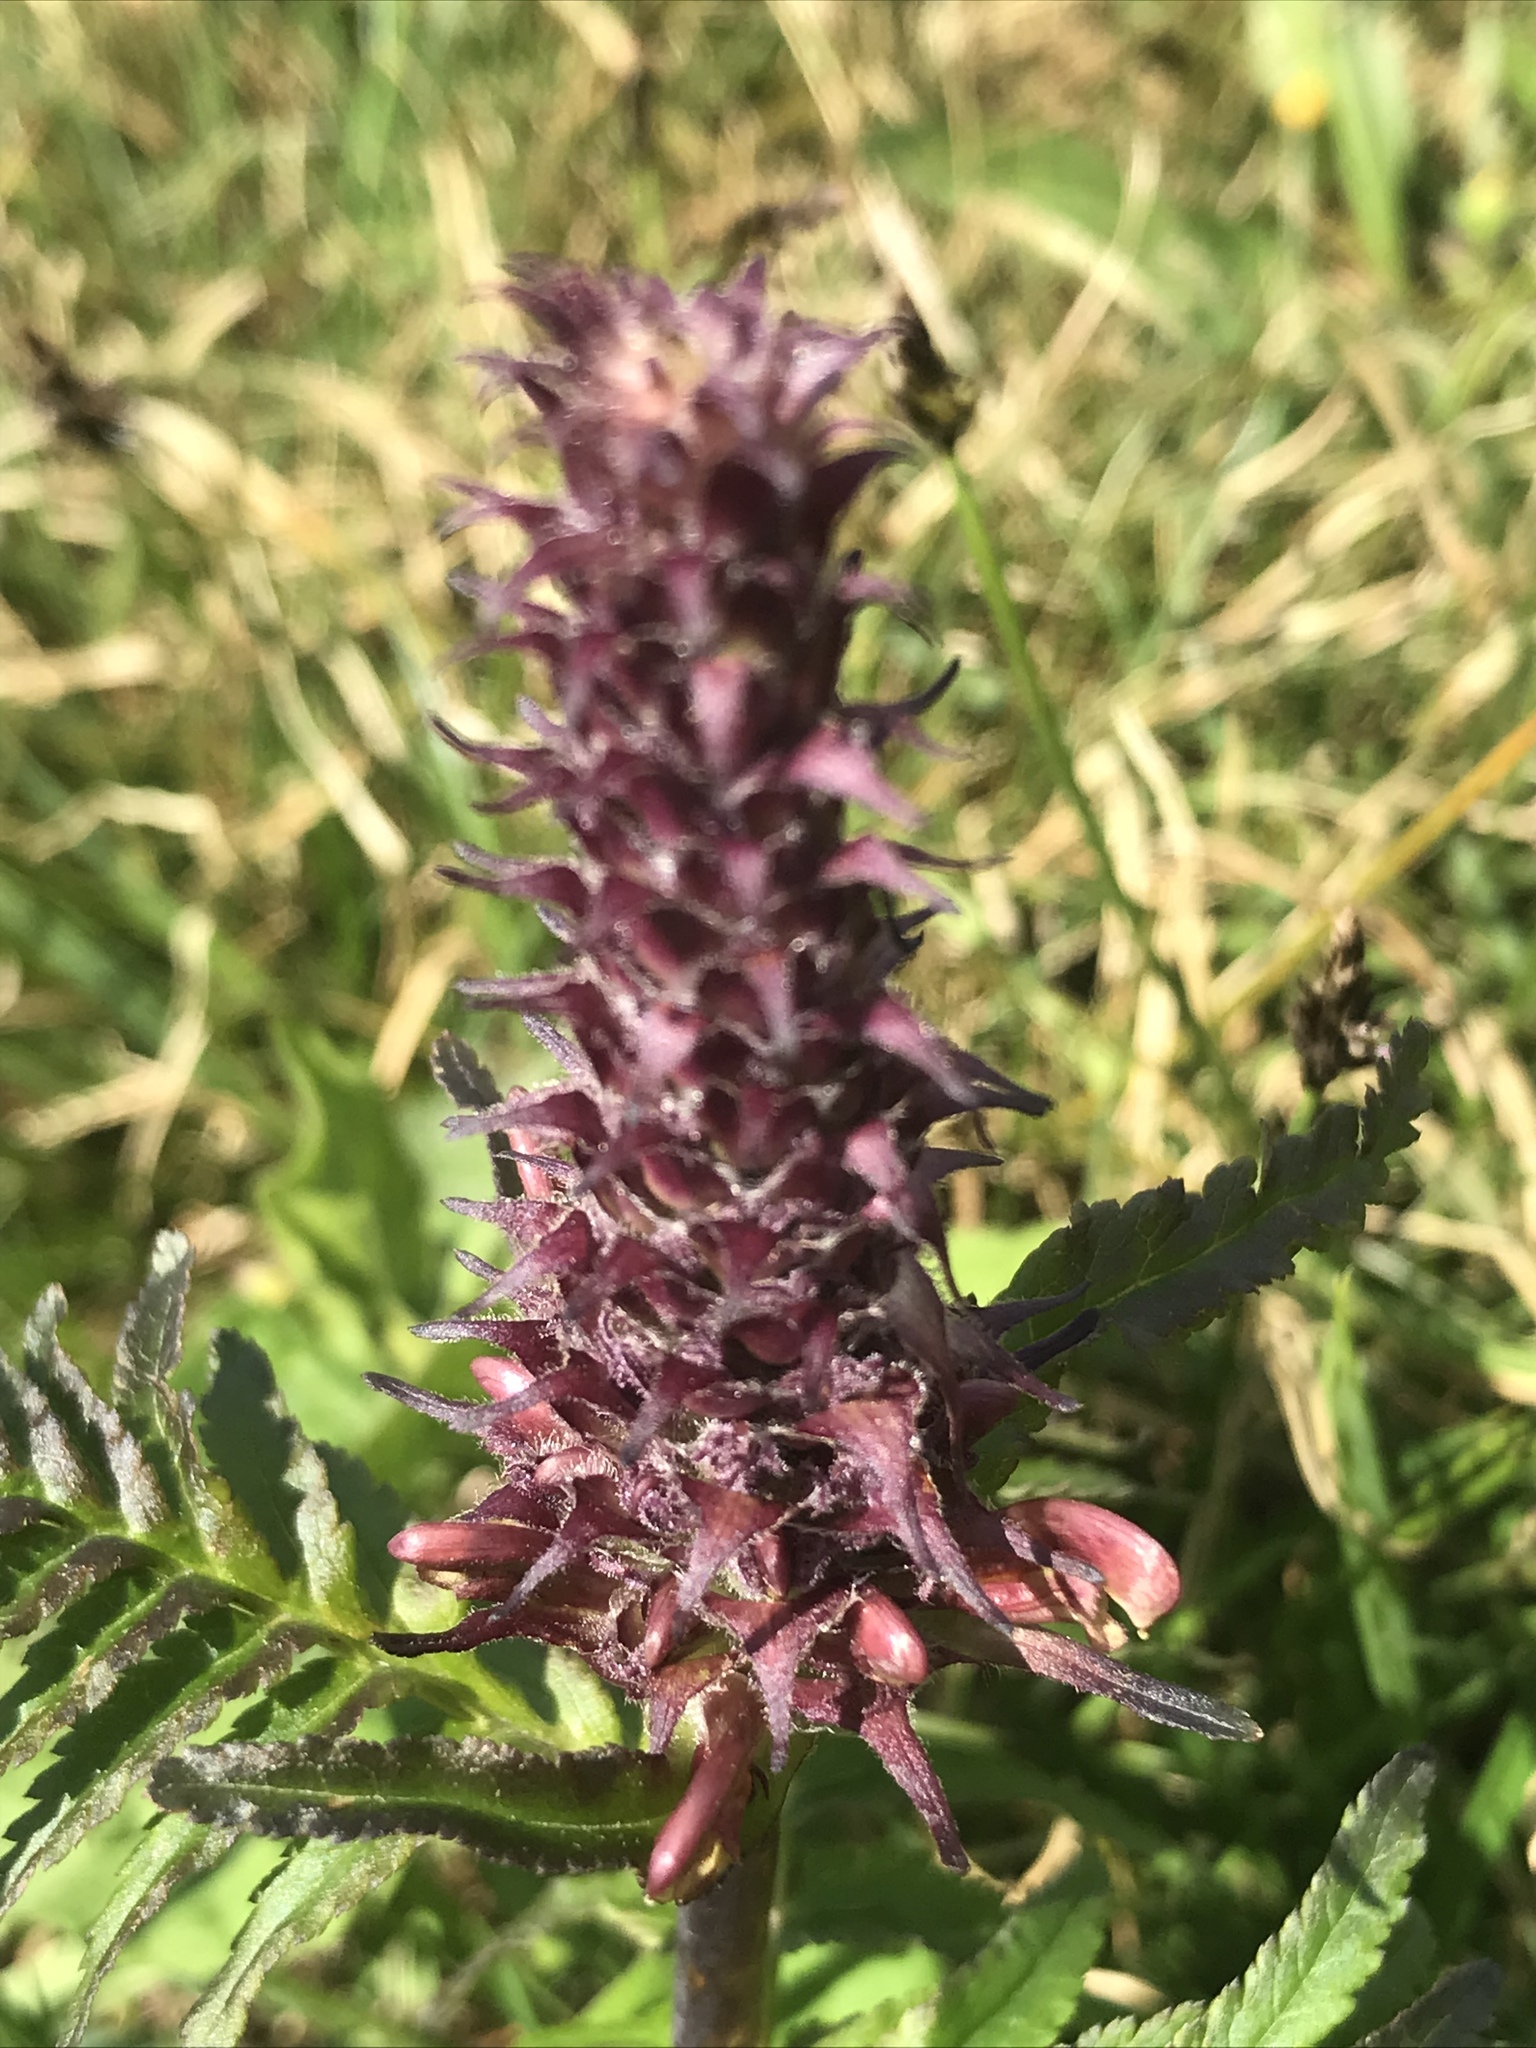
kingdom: Plantae
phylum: Tracheophyta
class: Magnoliopsida
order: Lamiales
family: Orobanchaceae
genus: Pedicularis
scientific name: Pedicularis bracteosa
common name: Bracted lousewort
